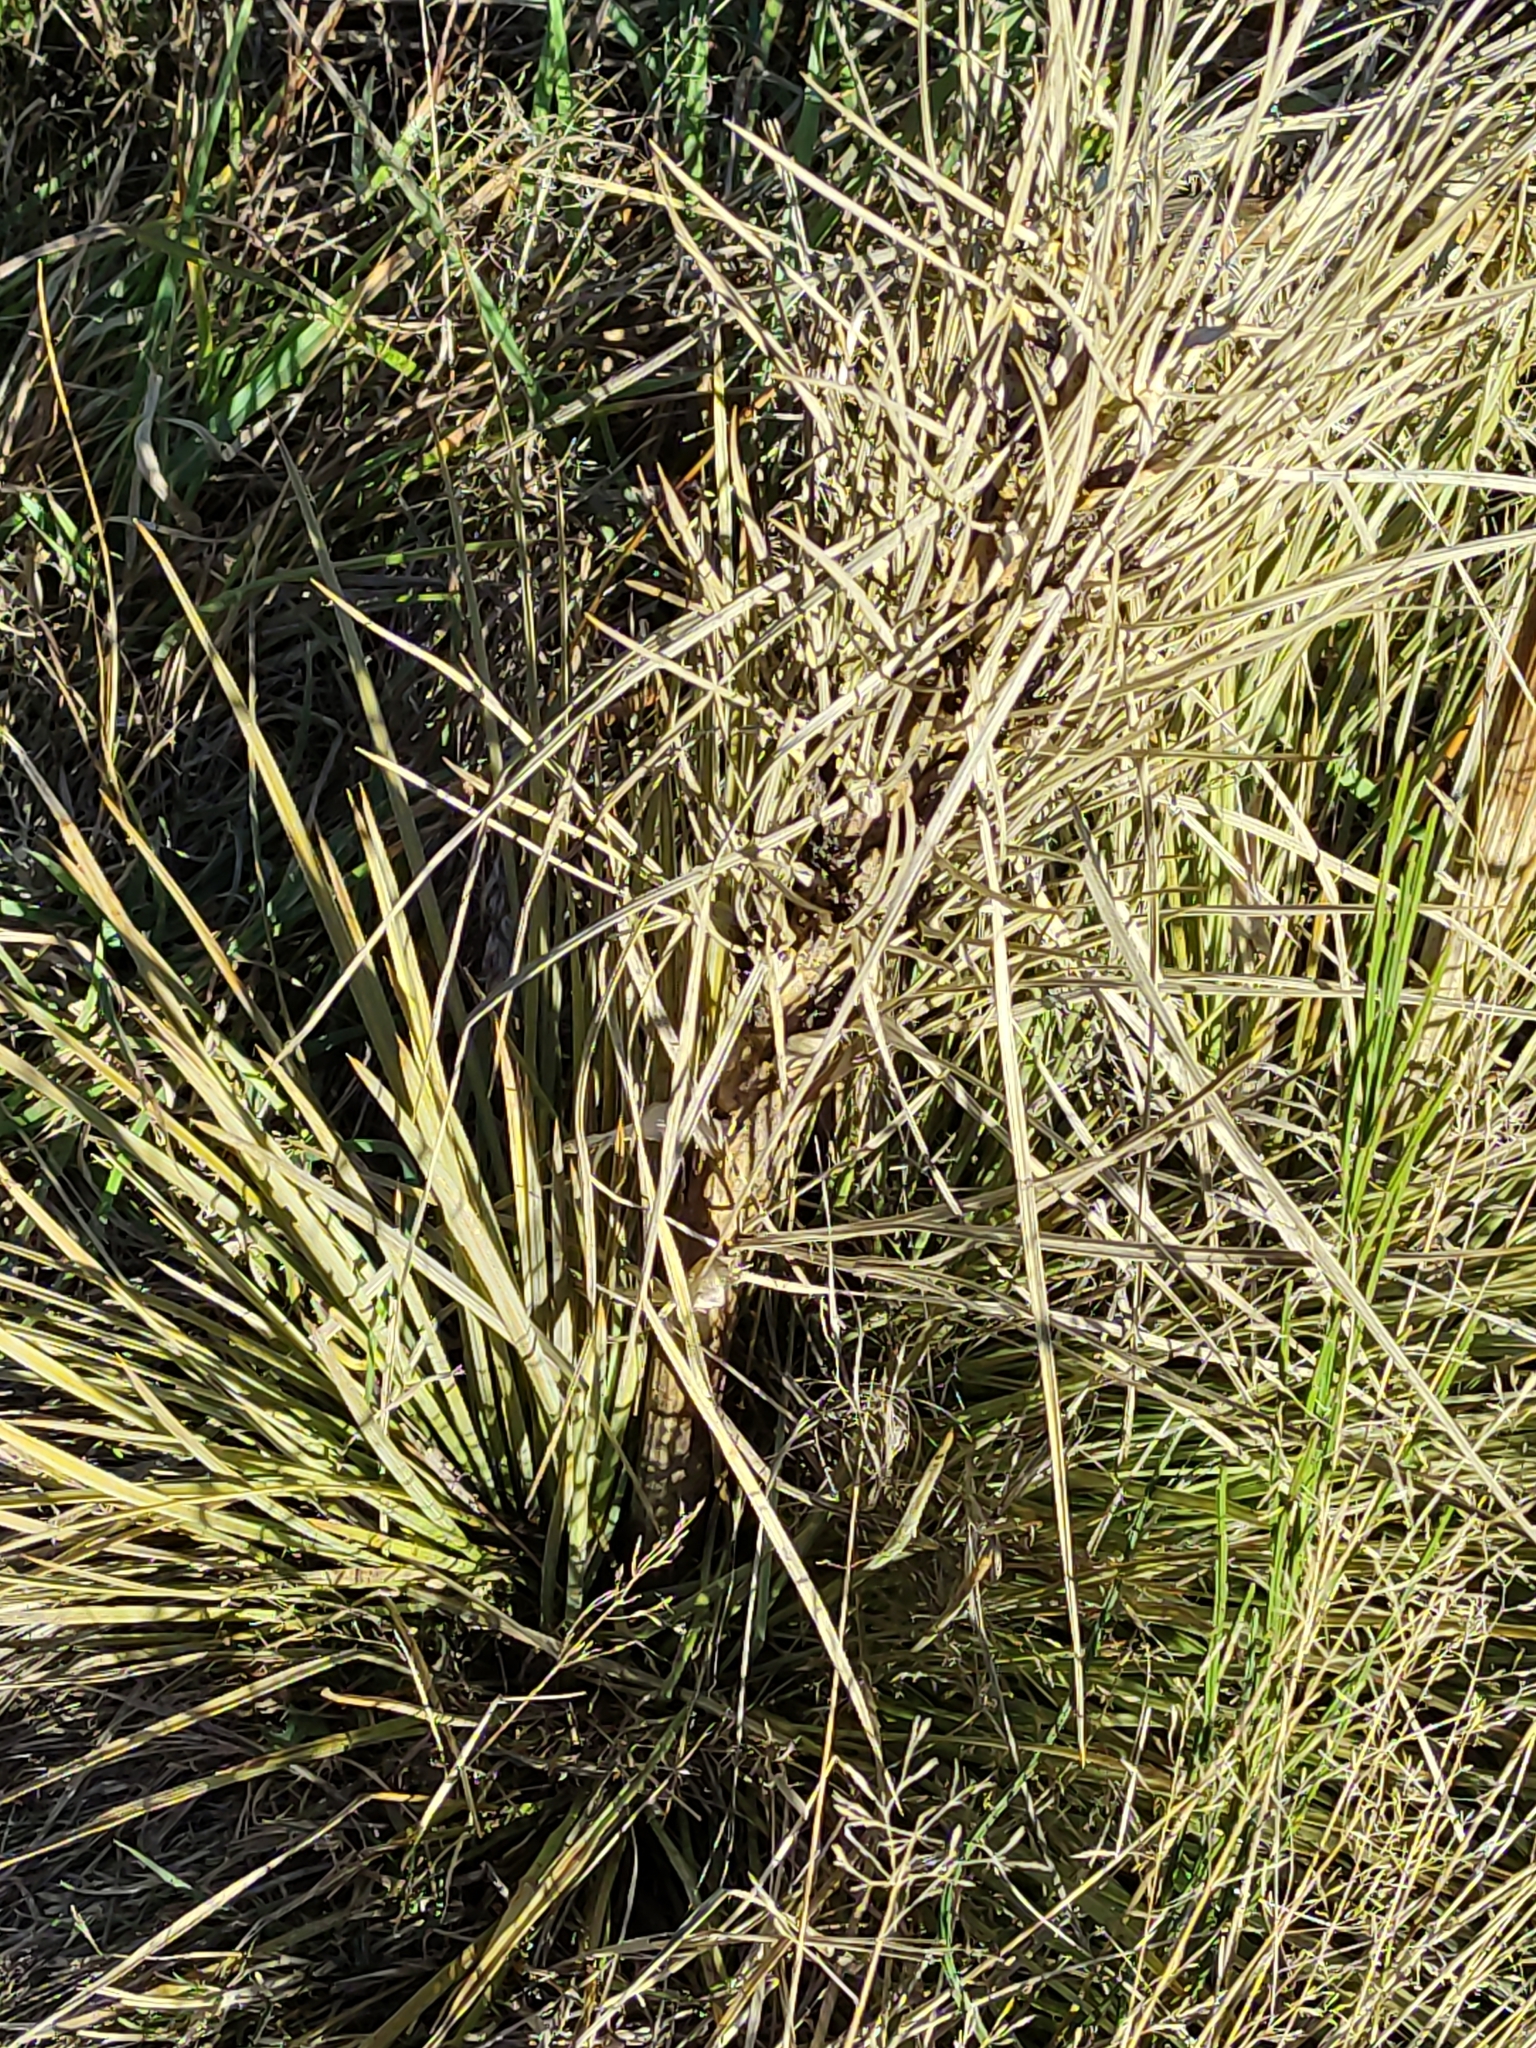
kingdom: Plantae
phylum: Tracheophyta
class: Magnoliopsida
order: Apiales
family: Apiaceae
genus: Aciphylla
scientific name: Aciphylla subflabellata
